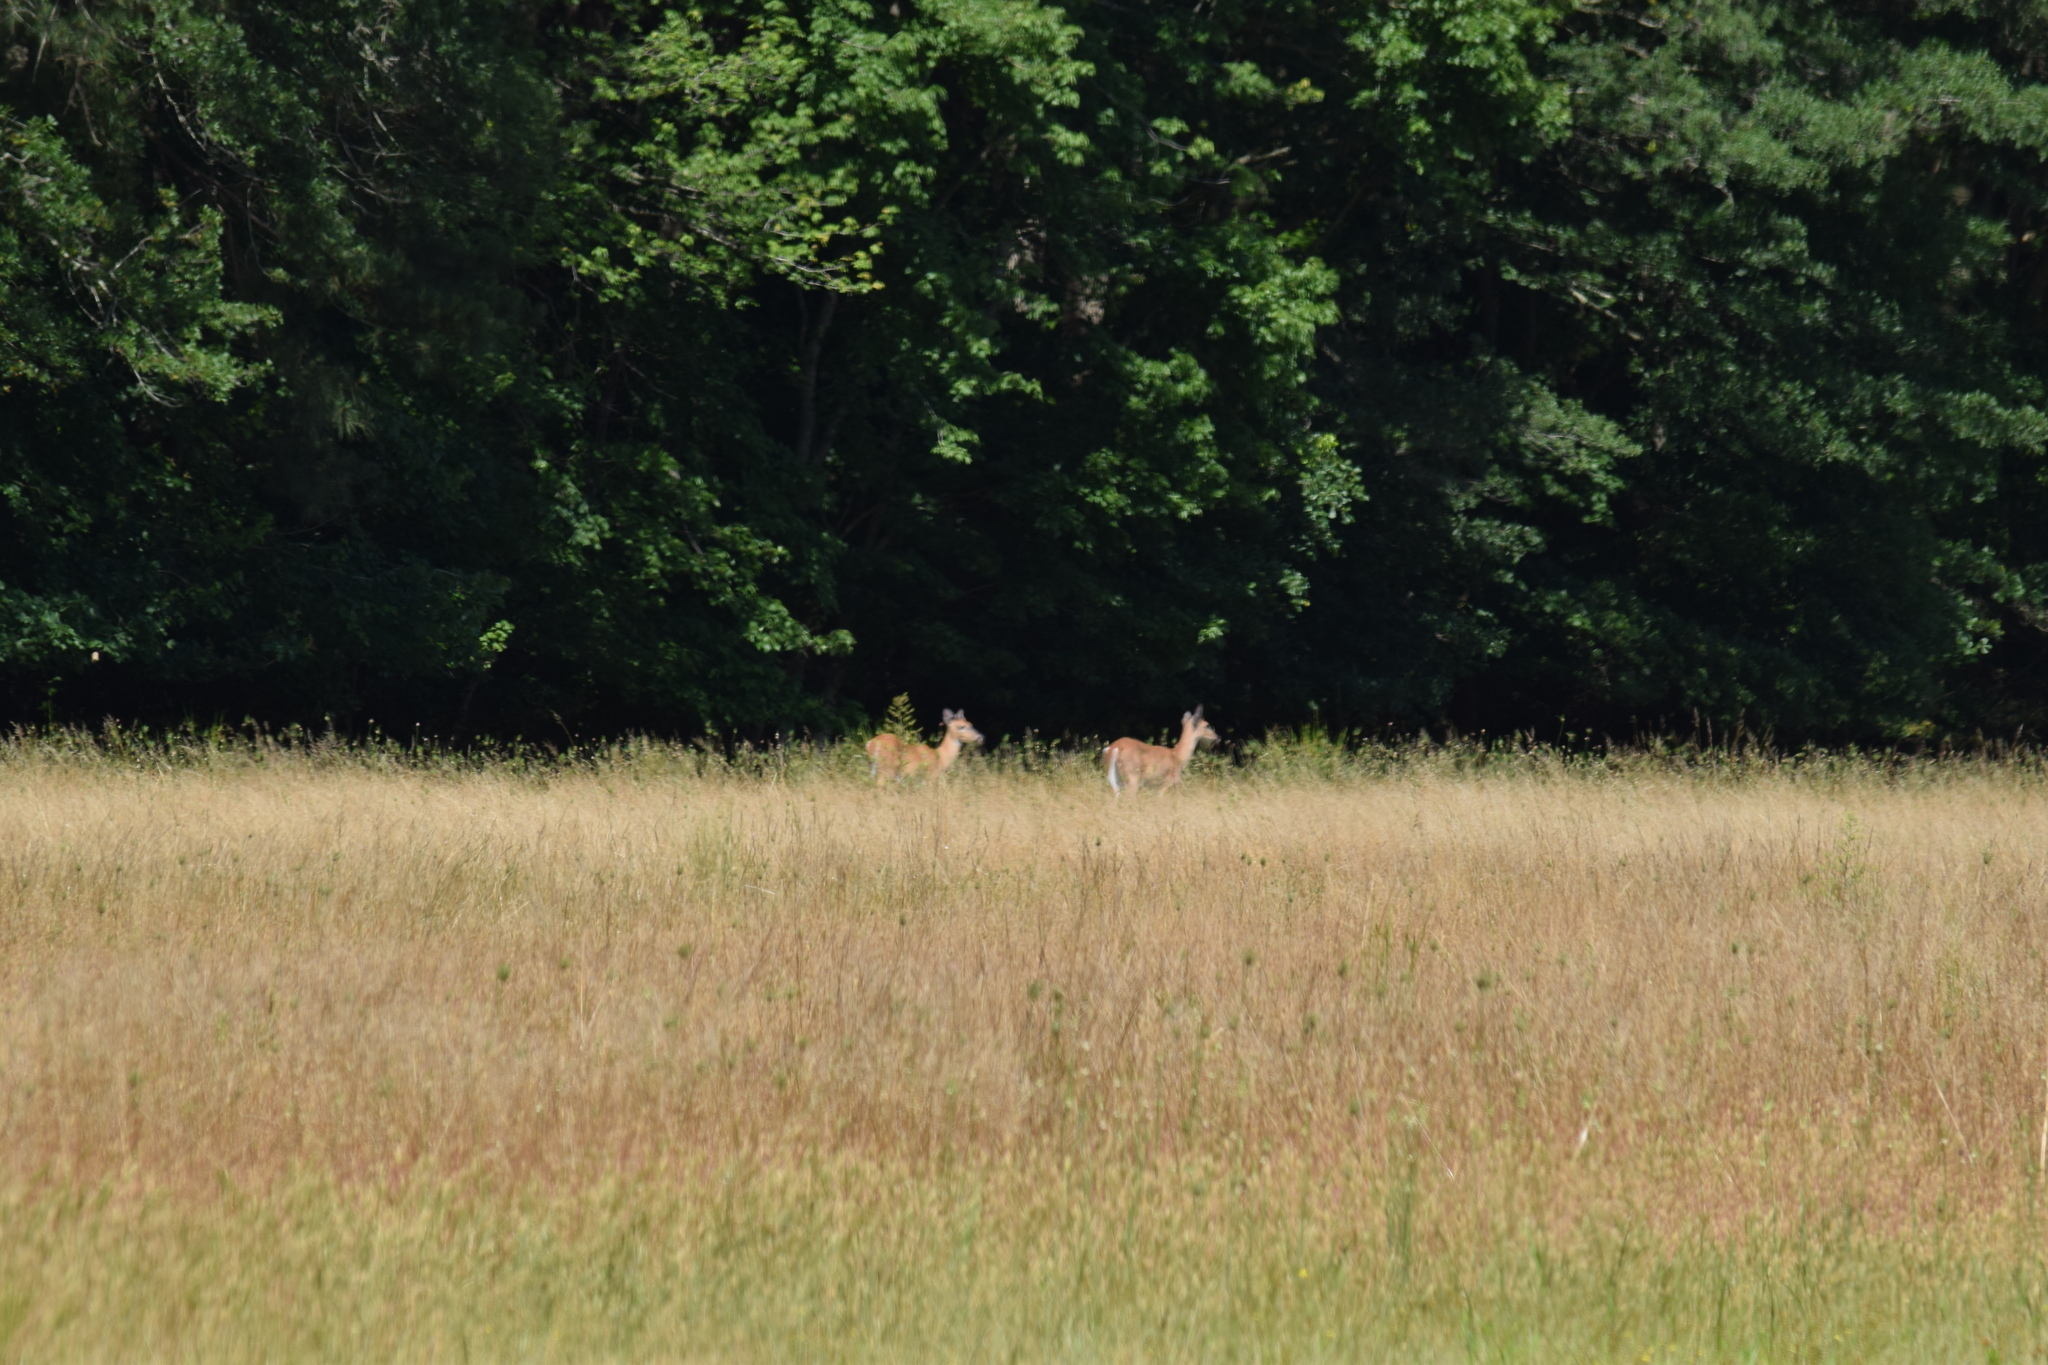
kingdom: Animalia
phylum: Chordata
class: Mammalia
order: Artiodactyla
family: Cervidae
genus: Odocoileus
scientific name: Odocoileus virginianus
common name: White-tailed deer
